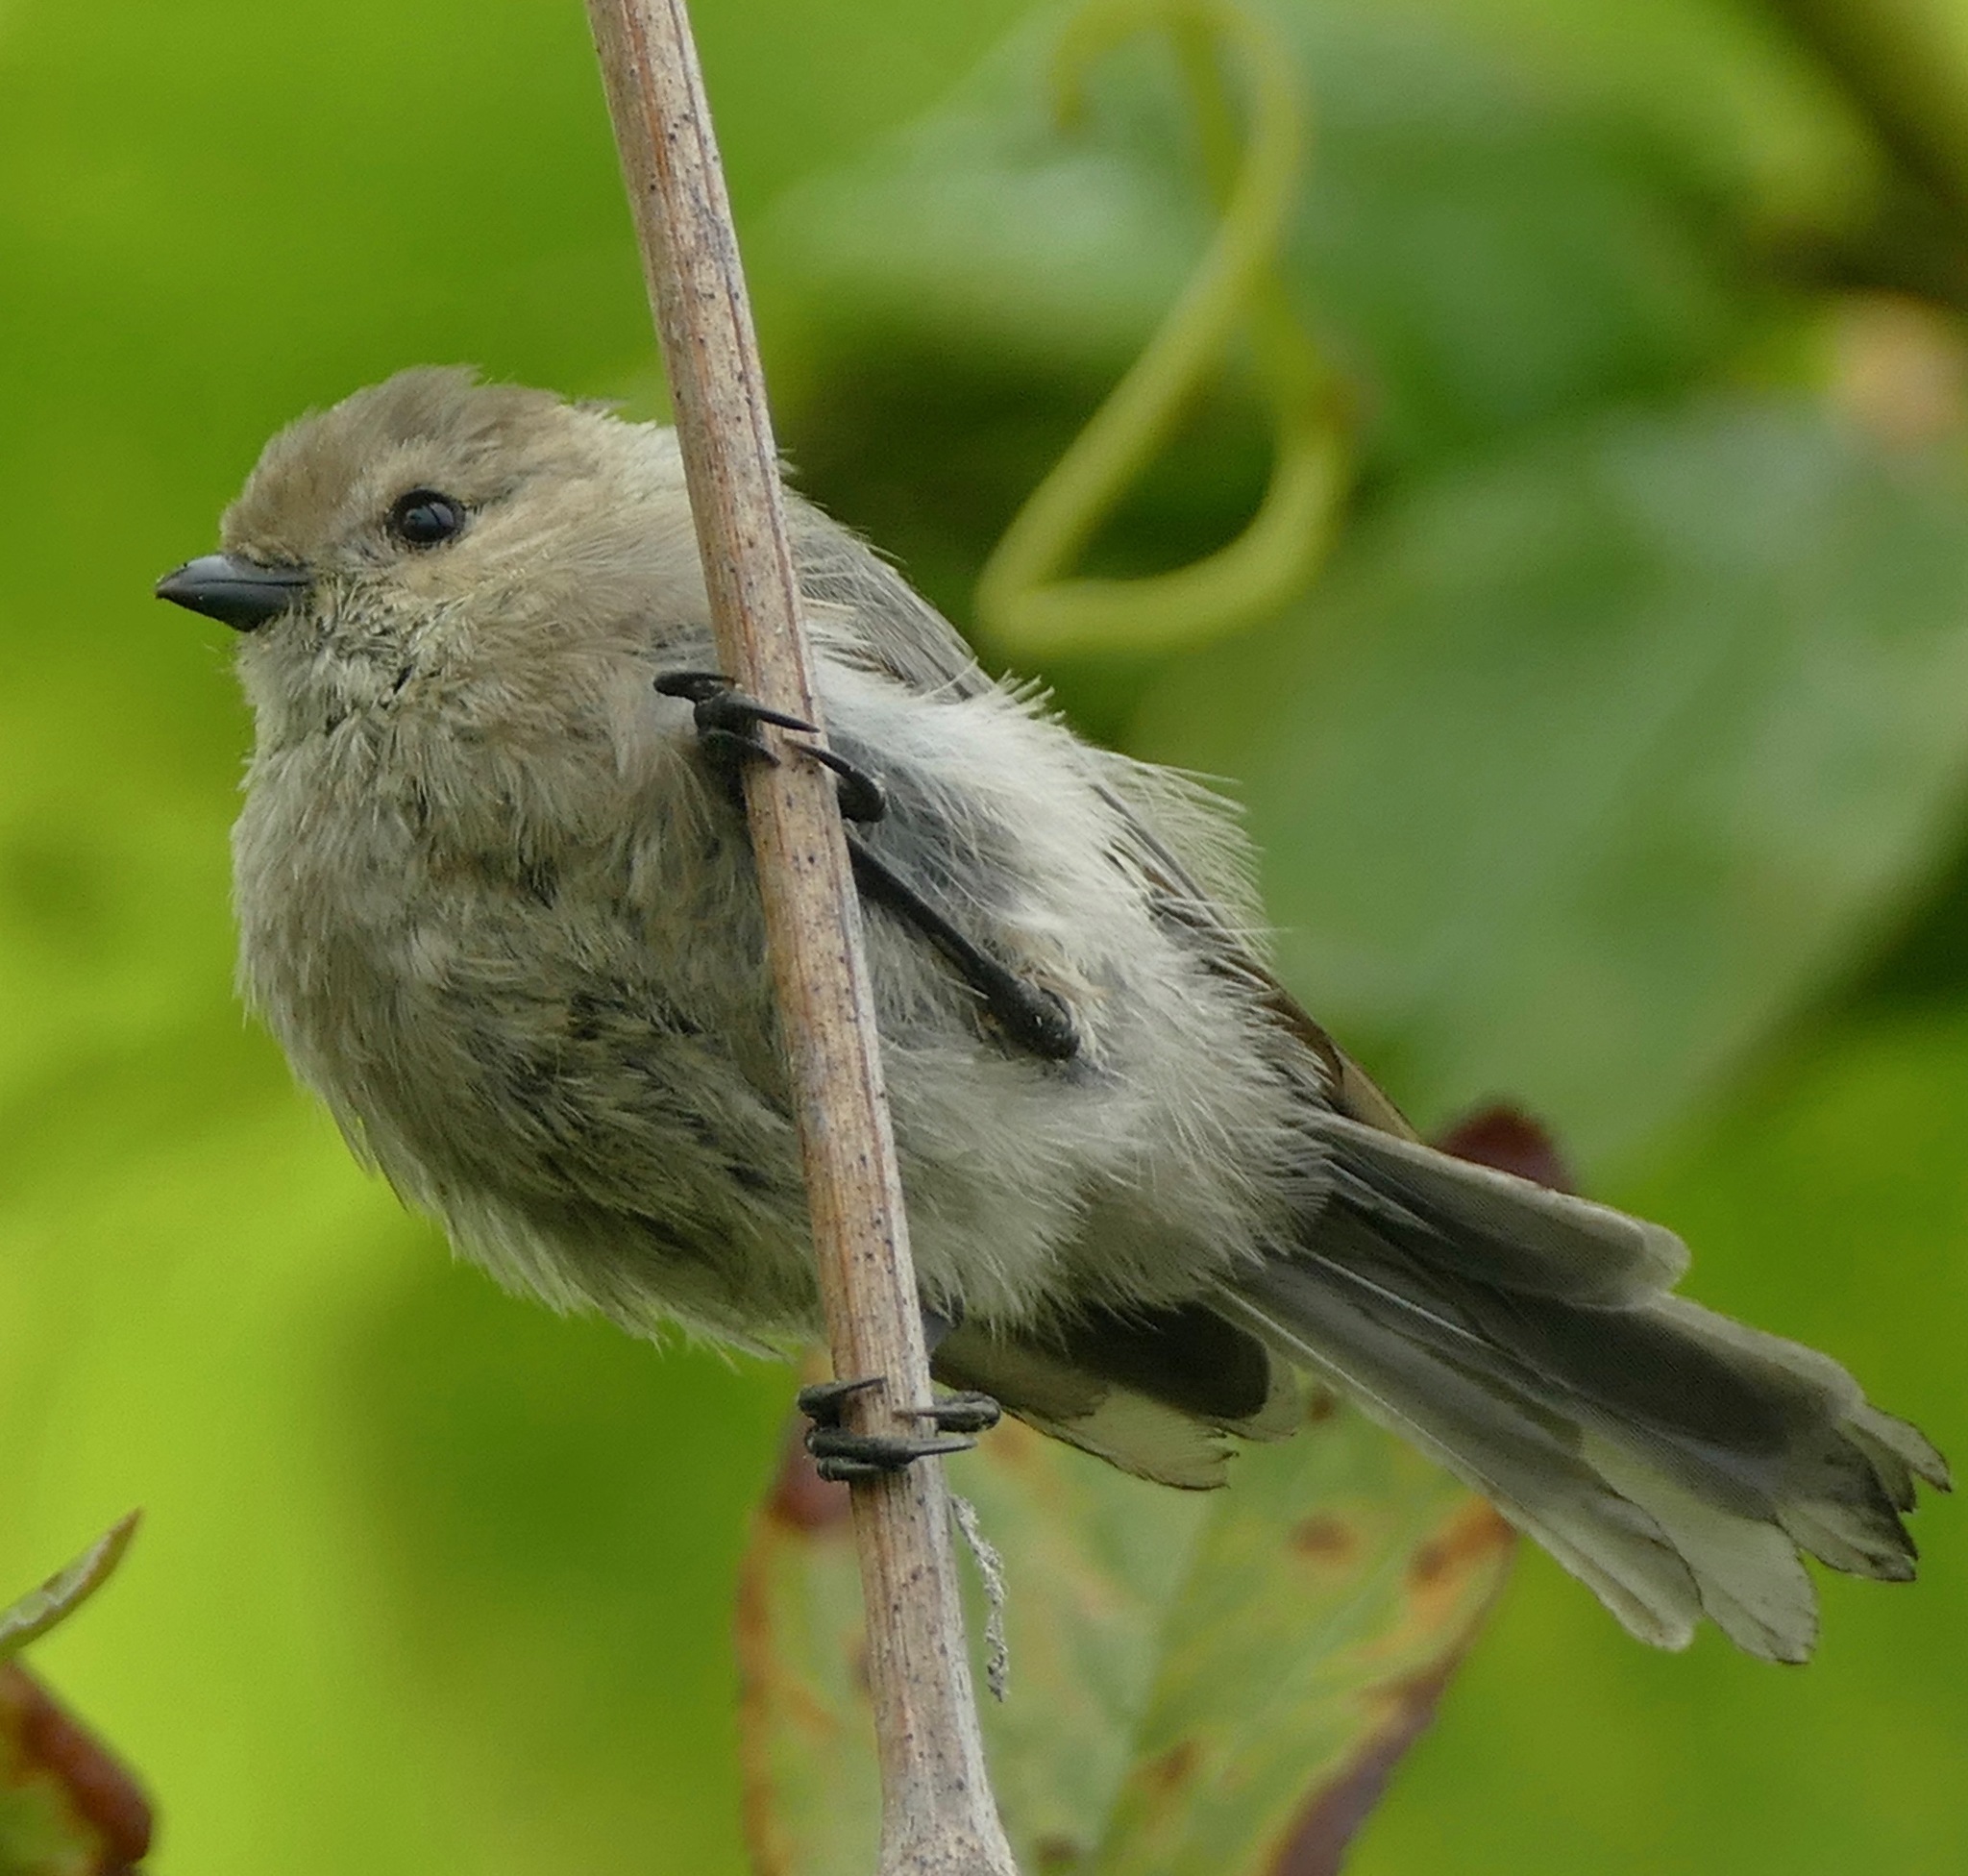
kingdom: Animalia
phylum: Chordata
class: Aves
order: Passeriformes
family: Aegithalidae
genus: Psaltriparus
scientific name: Psaltriparus minimus
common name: American bushtit
